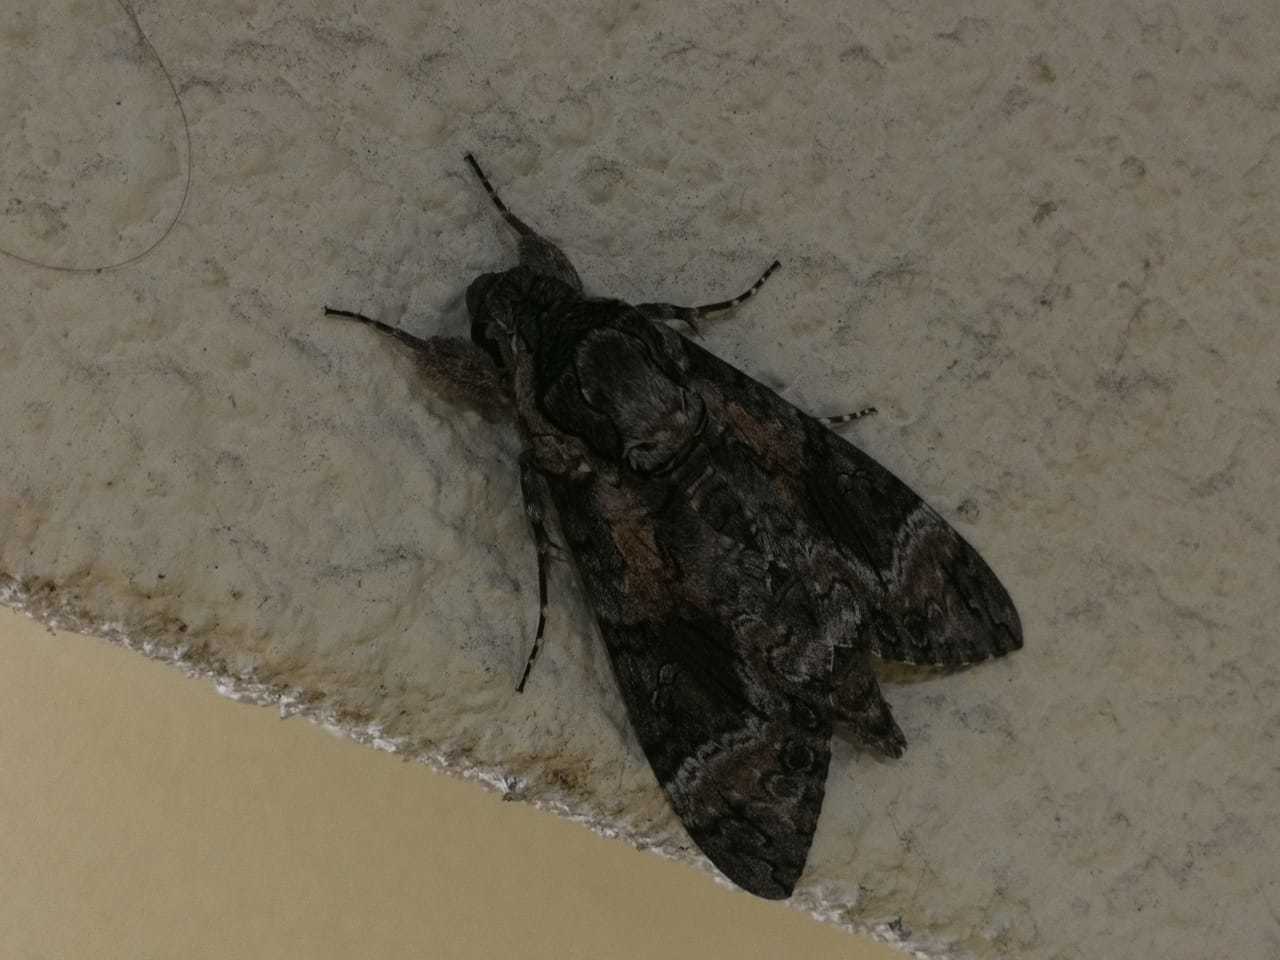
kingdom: Animalia
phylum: Arthropoda
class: Insecta
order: Lepidoptera
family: Sphingidae
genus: Agrius
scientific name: Agrius cingulata
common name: Pink-spotted hawkmoth
